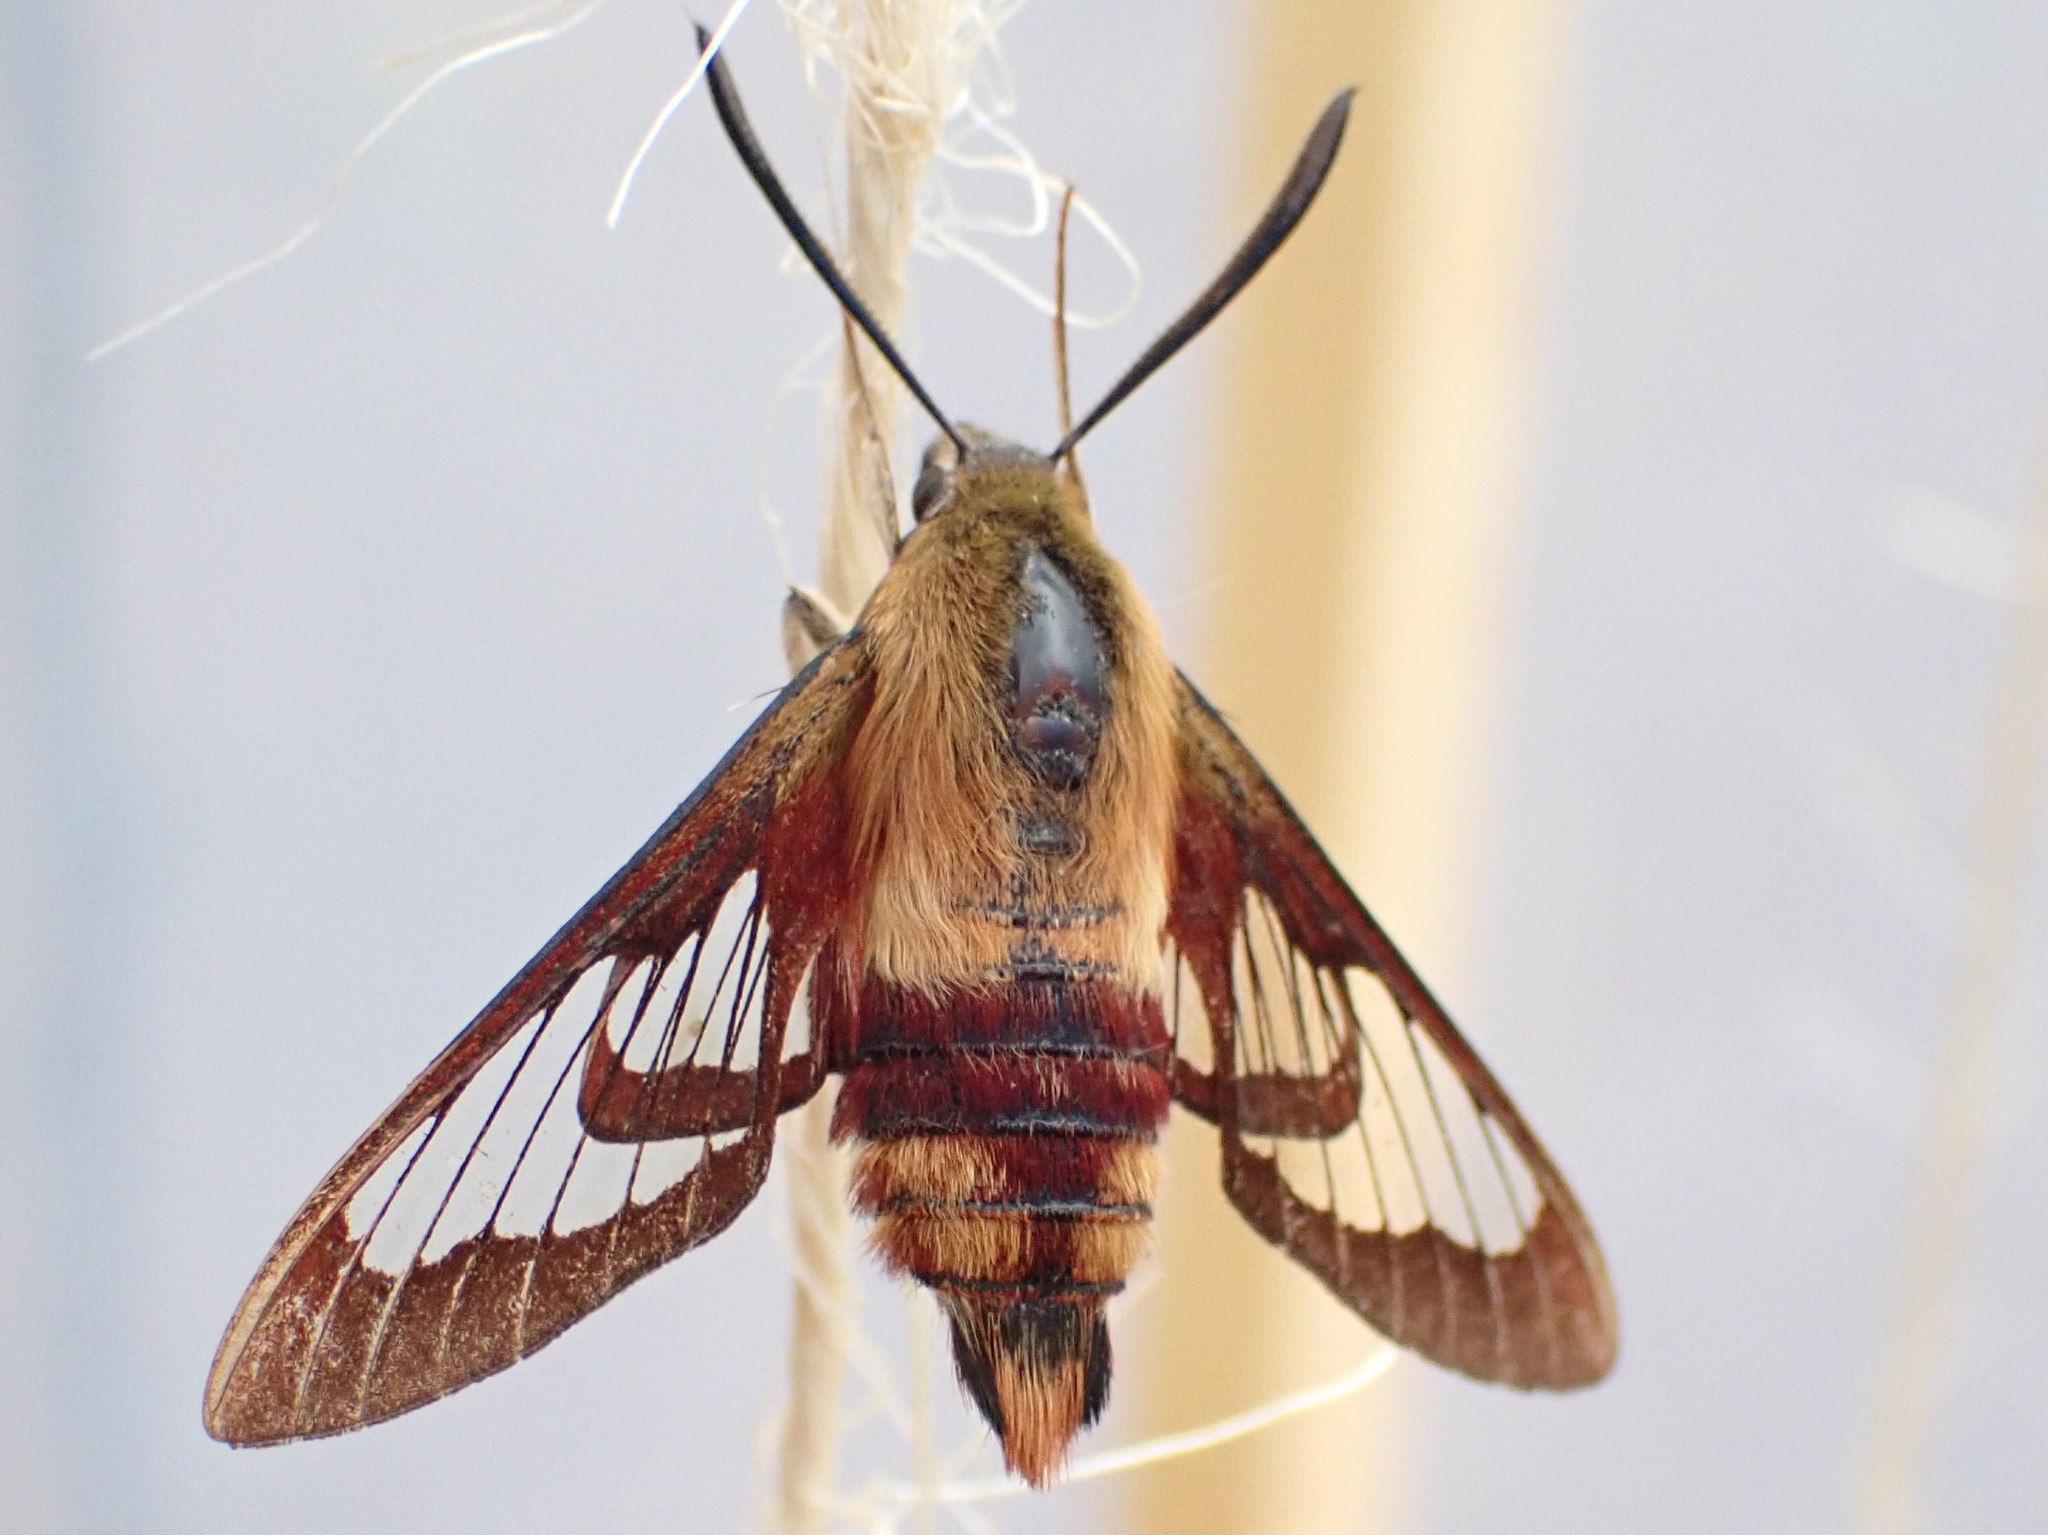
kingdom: Animalia
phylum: Arthropoda
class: Insecta
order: Lepidoptera
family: Sphingidae
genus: Hemaris
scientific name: Hemaris thysbe
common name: Common clear-wing
